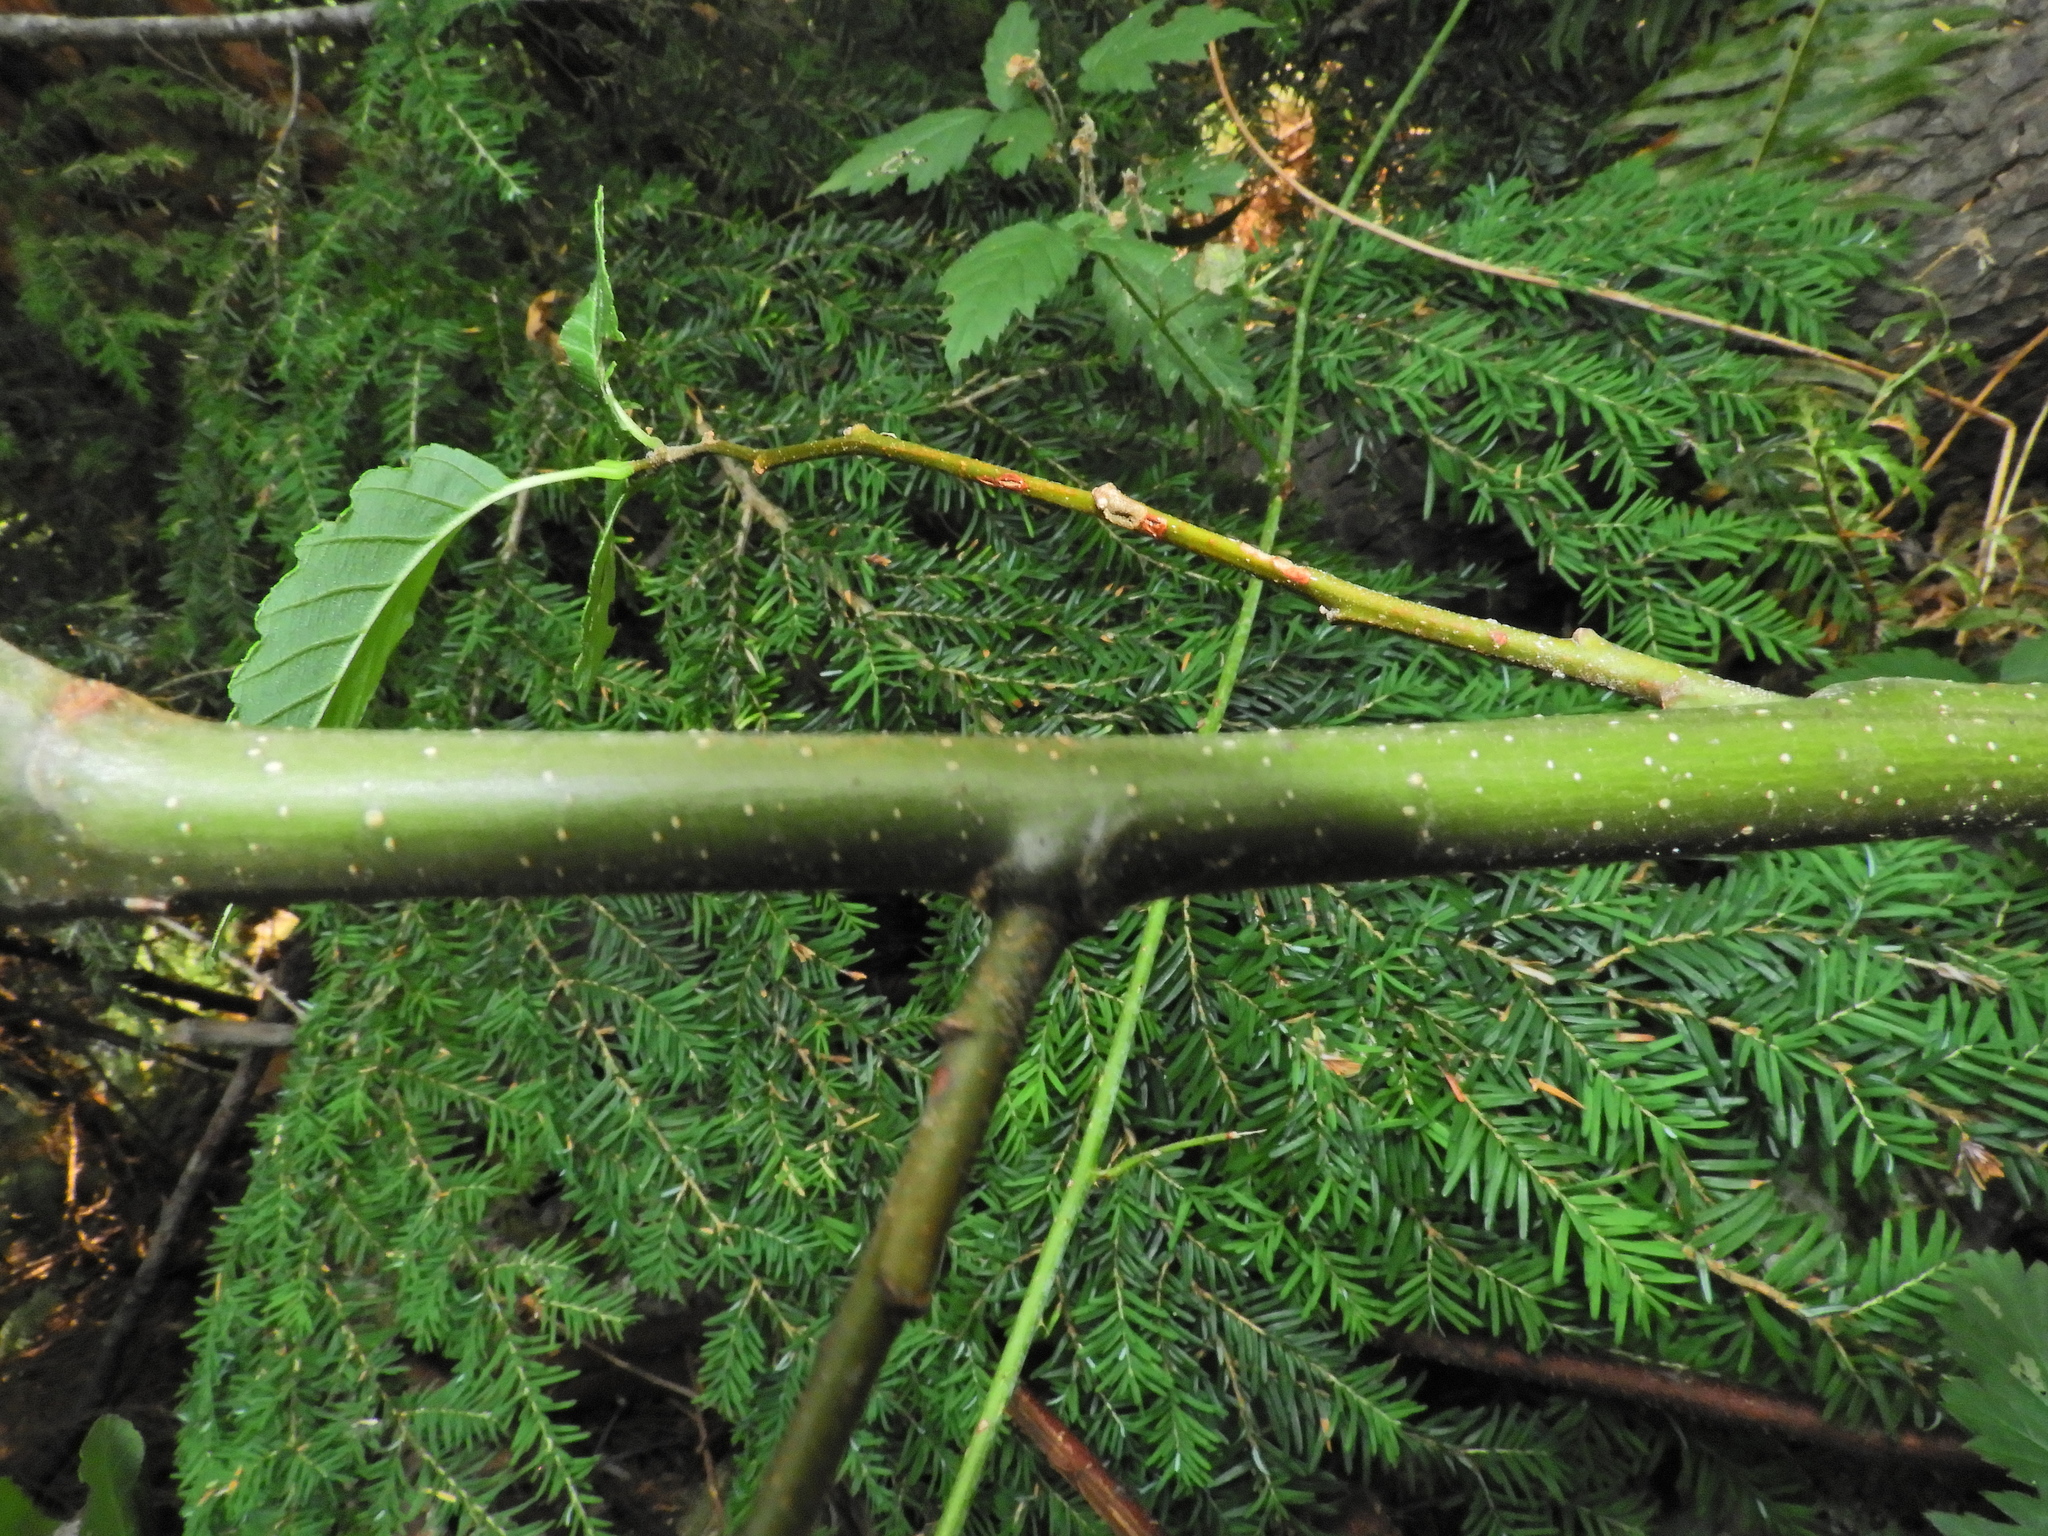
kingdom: Plantae
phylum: Tracheophyta
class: Magnoliopsida
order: Fagales
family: Betulaceae
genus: Alnus
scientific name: Alnus rubra
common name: Red alder
